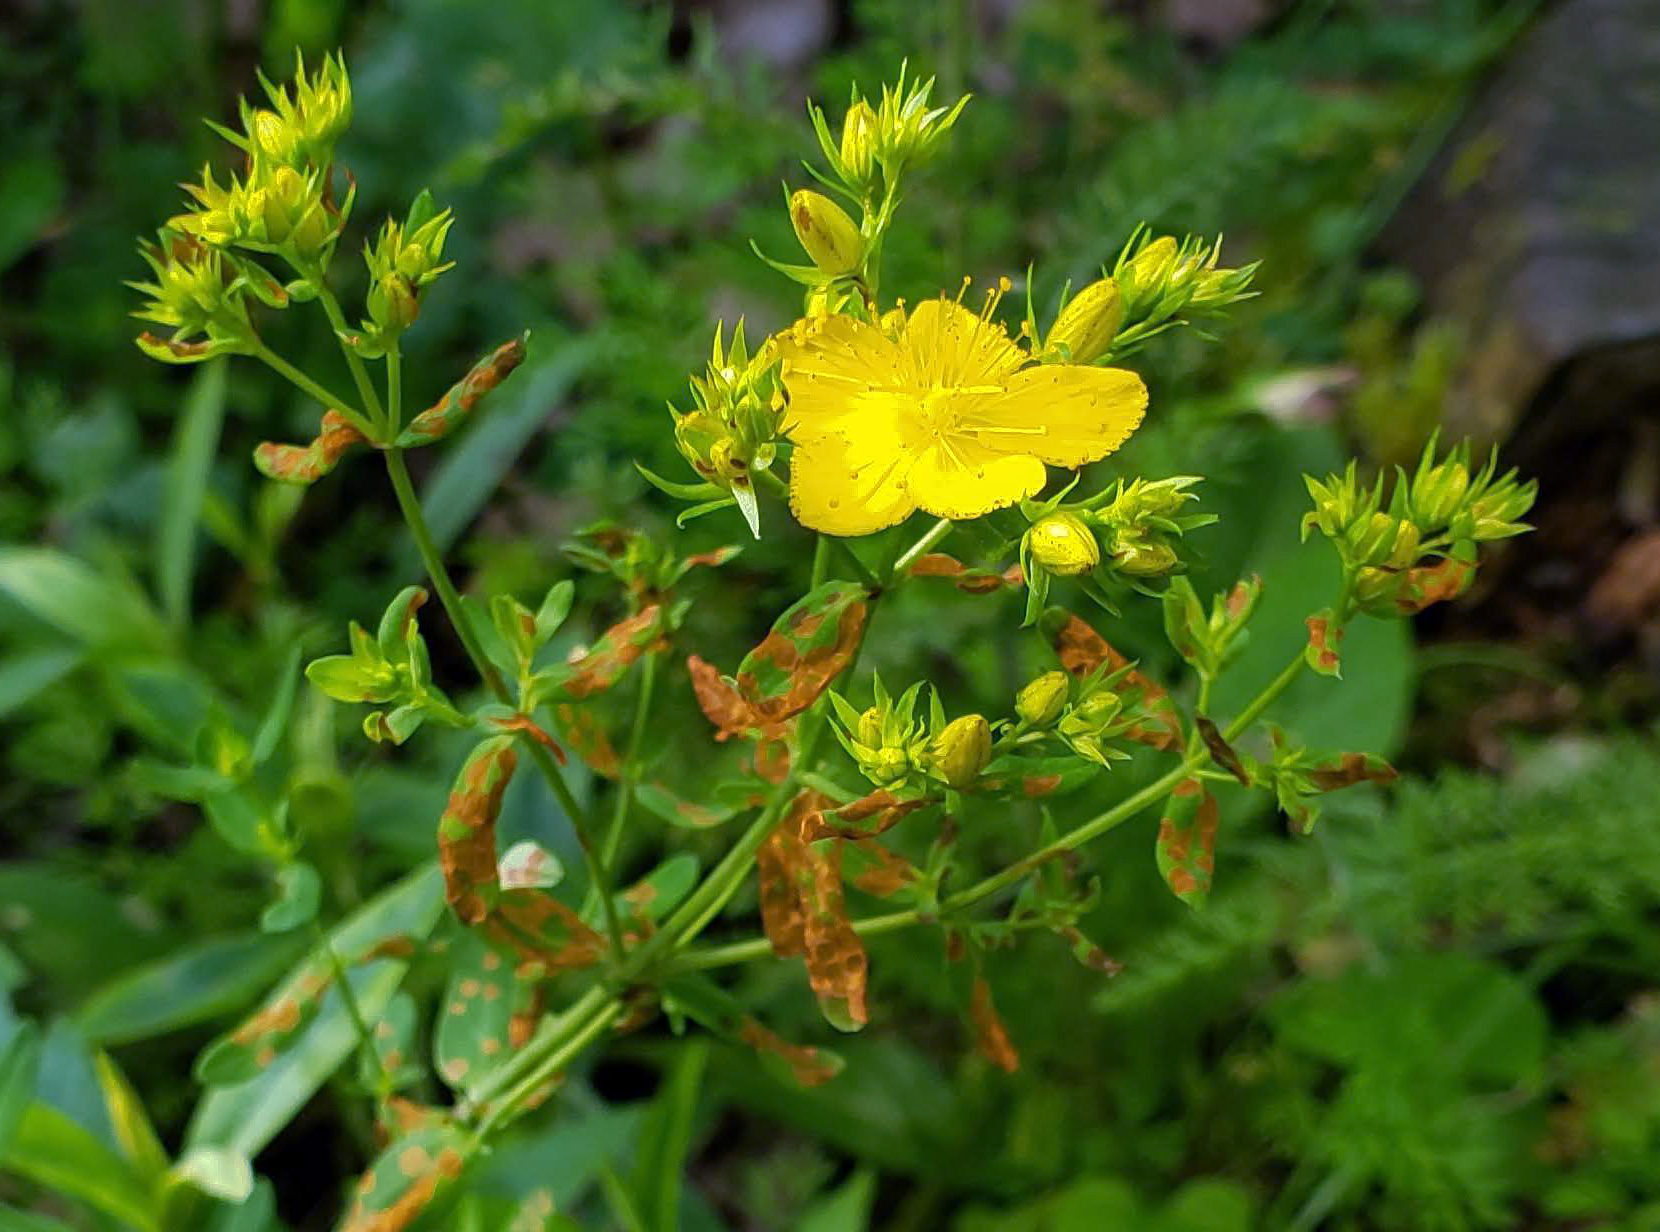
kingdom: Plantae
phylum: Tracheophyta
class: Magnoliopsida
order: Malpighiales
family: Hypericaceae
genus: Hypericum
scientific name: Hypericum perforatum
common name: Common st. johnswort
